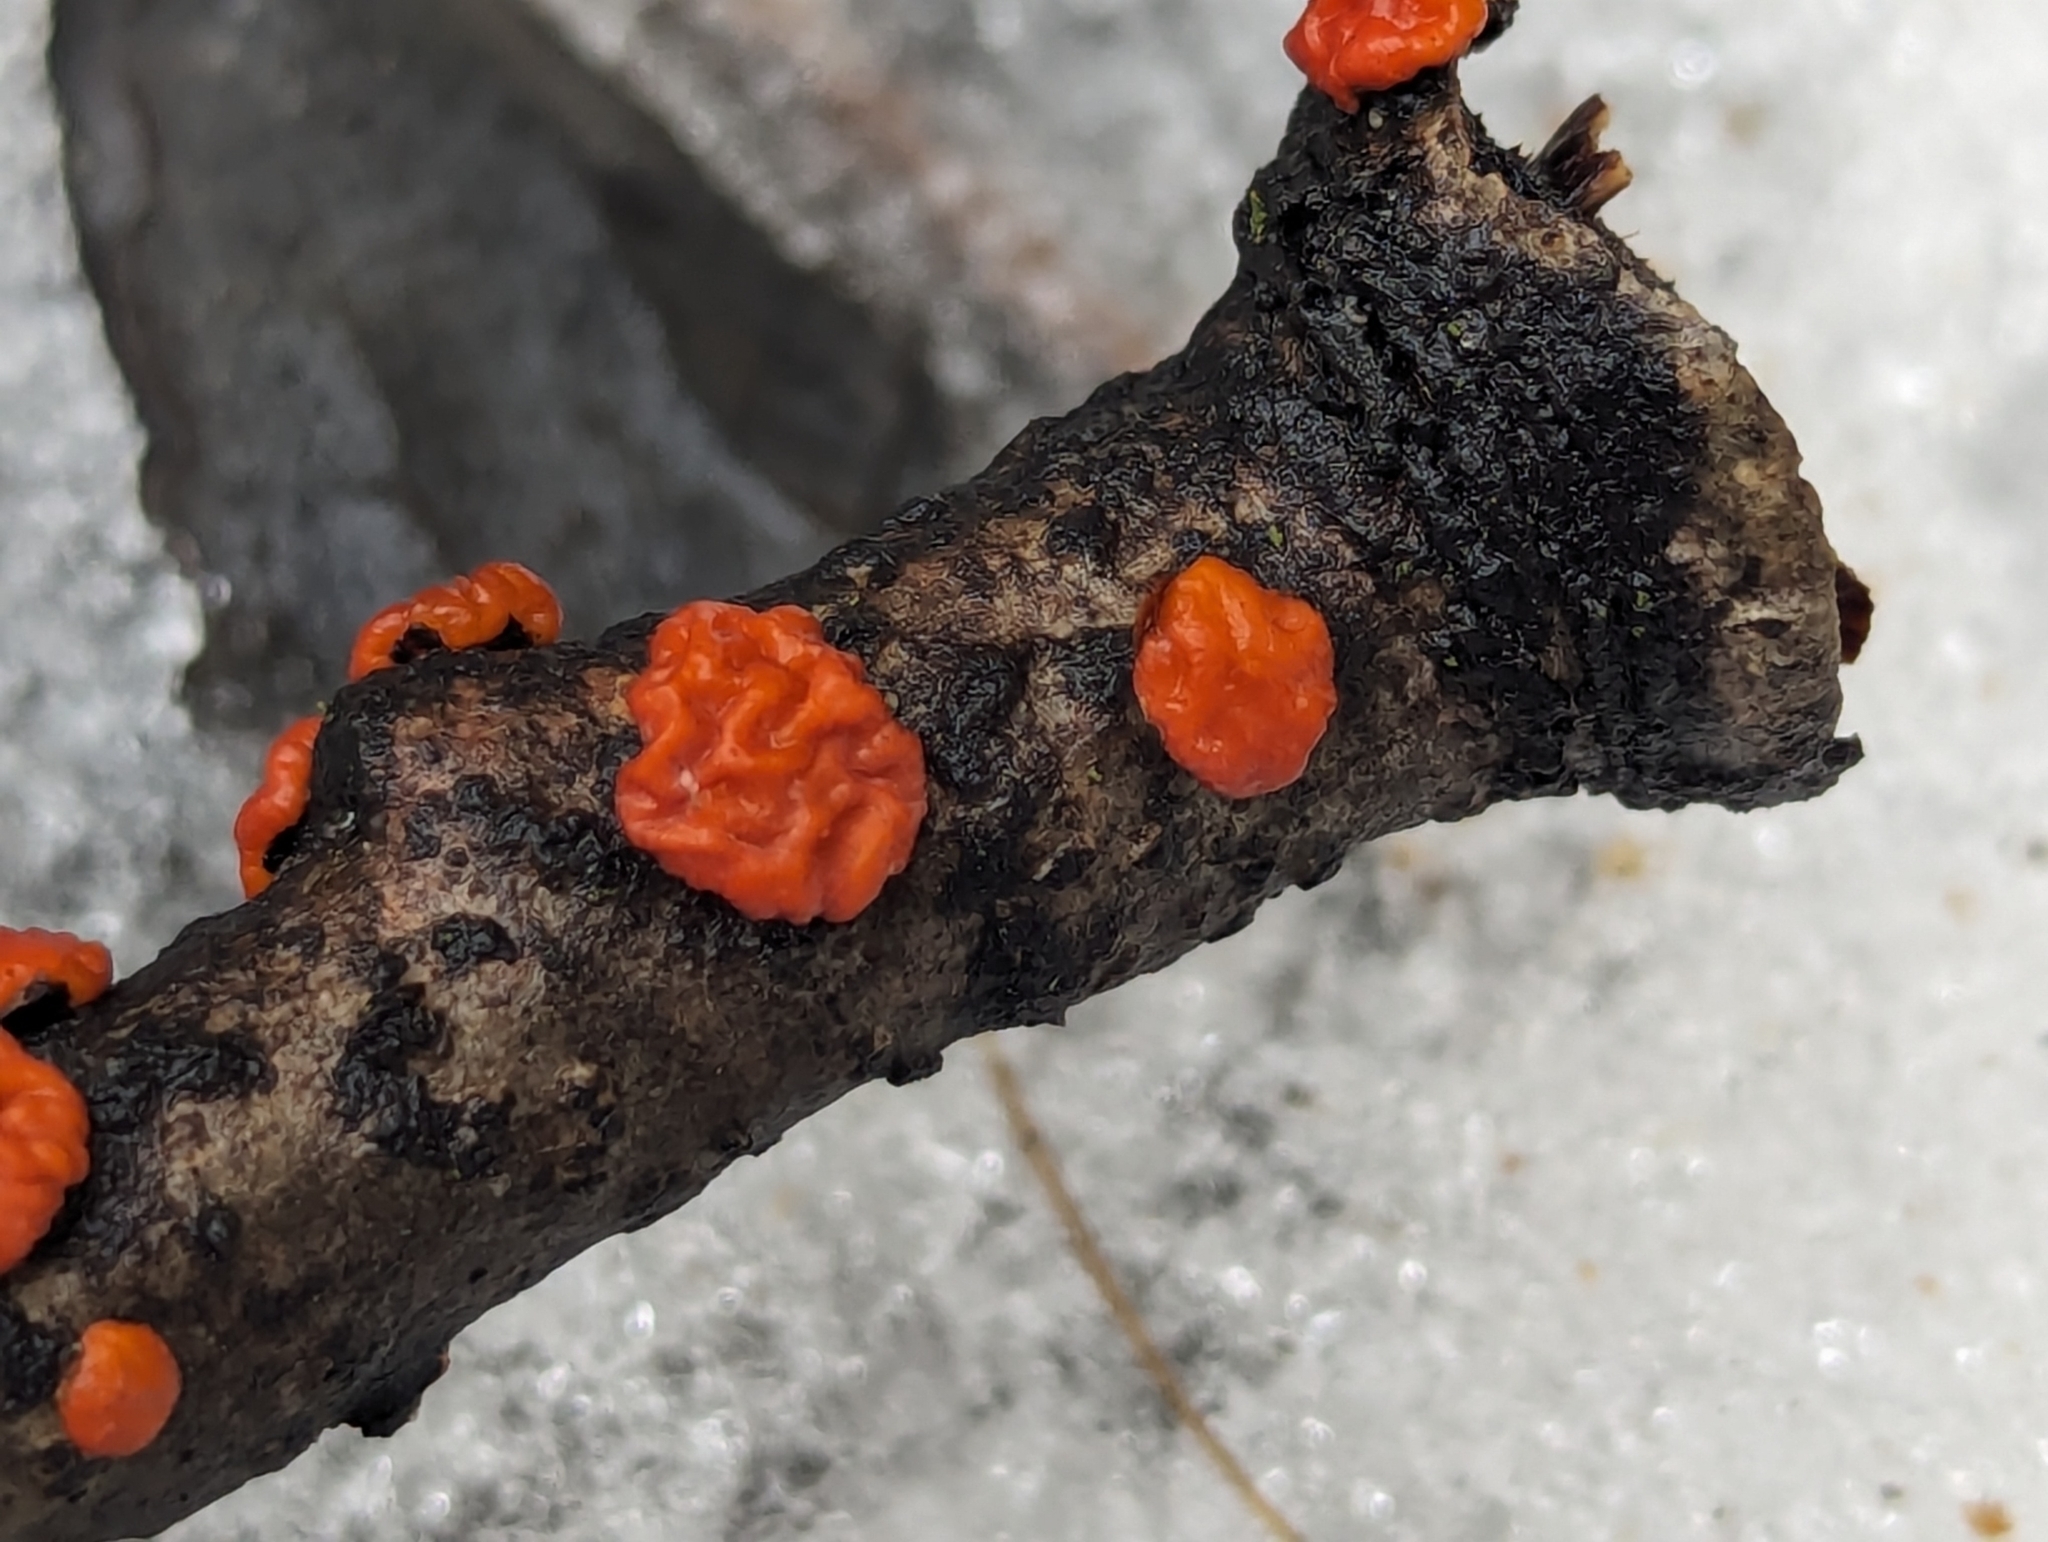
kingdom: Fungi
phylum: Basidiomycota
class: Agaricomycetes
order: Russulales
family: Peniophoraceae
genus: Peniophora
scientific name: Peniophora rufa
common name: Red tree brain fungus
